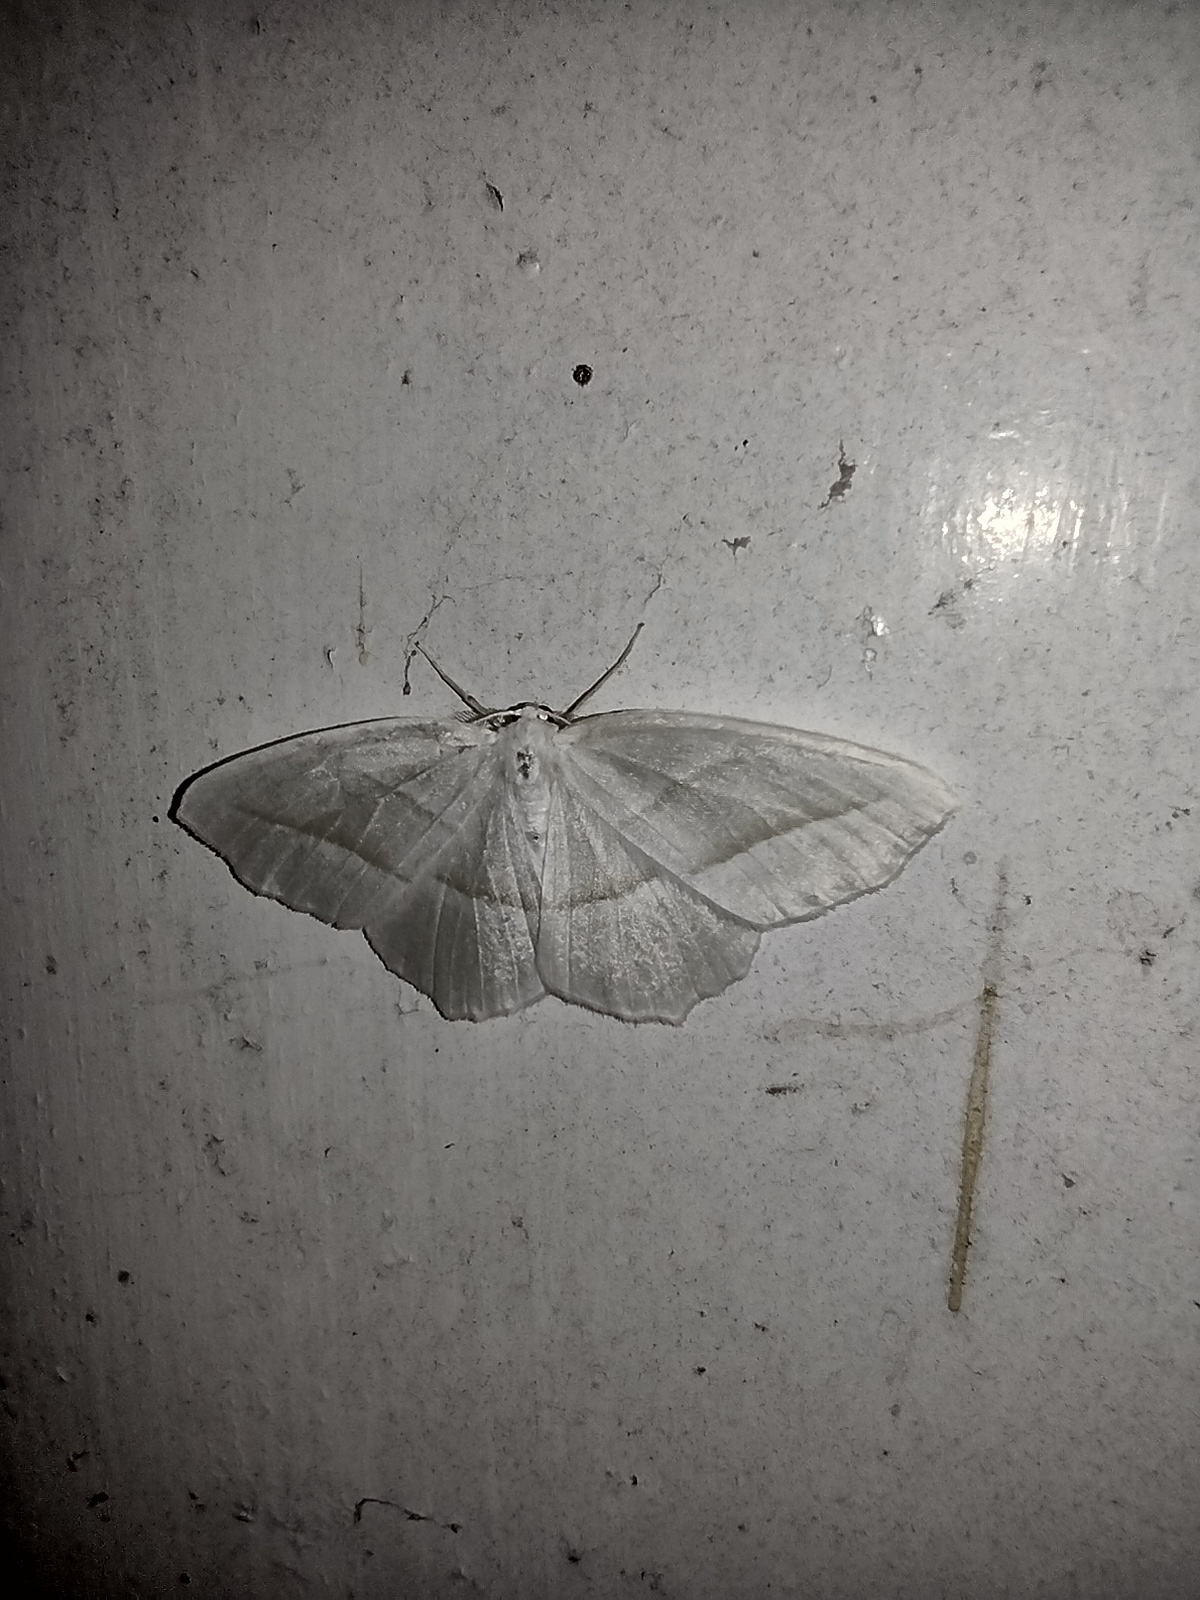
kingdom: Animalia
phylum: Arthropoda
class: Insecta
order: Lepidoptera
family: Geometridae
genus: Campaea
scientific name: Campaea perlata
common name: Fringed looper
